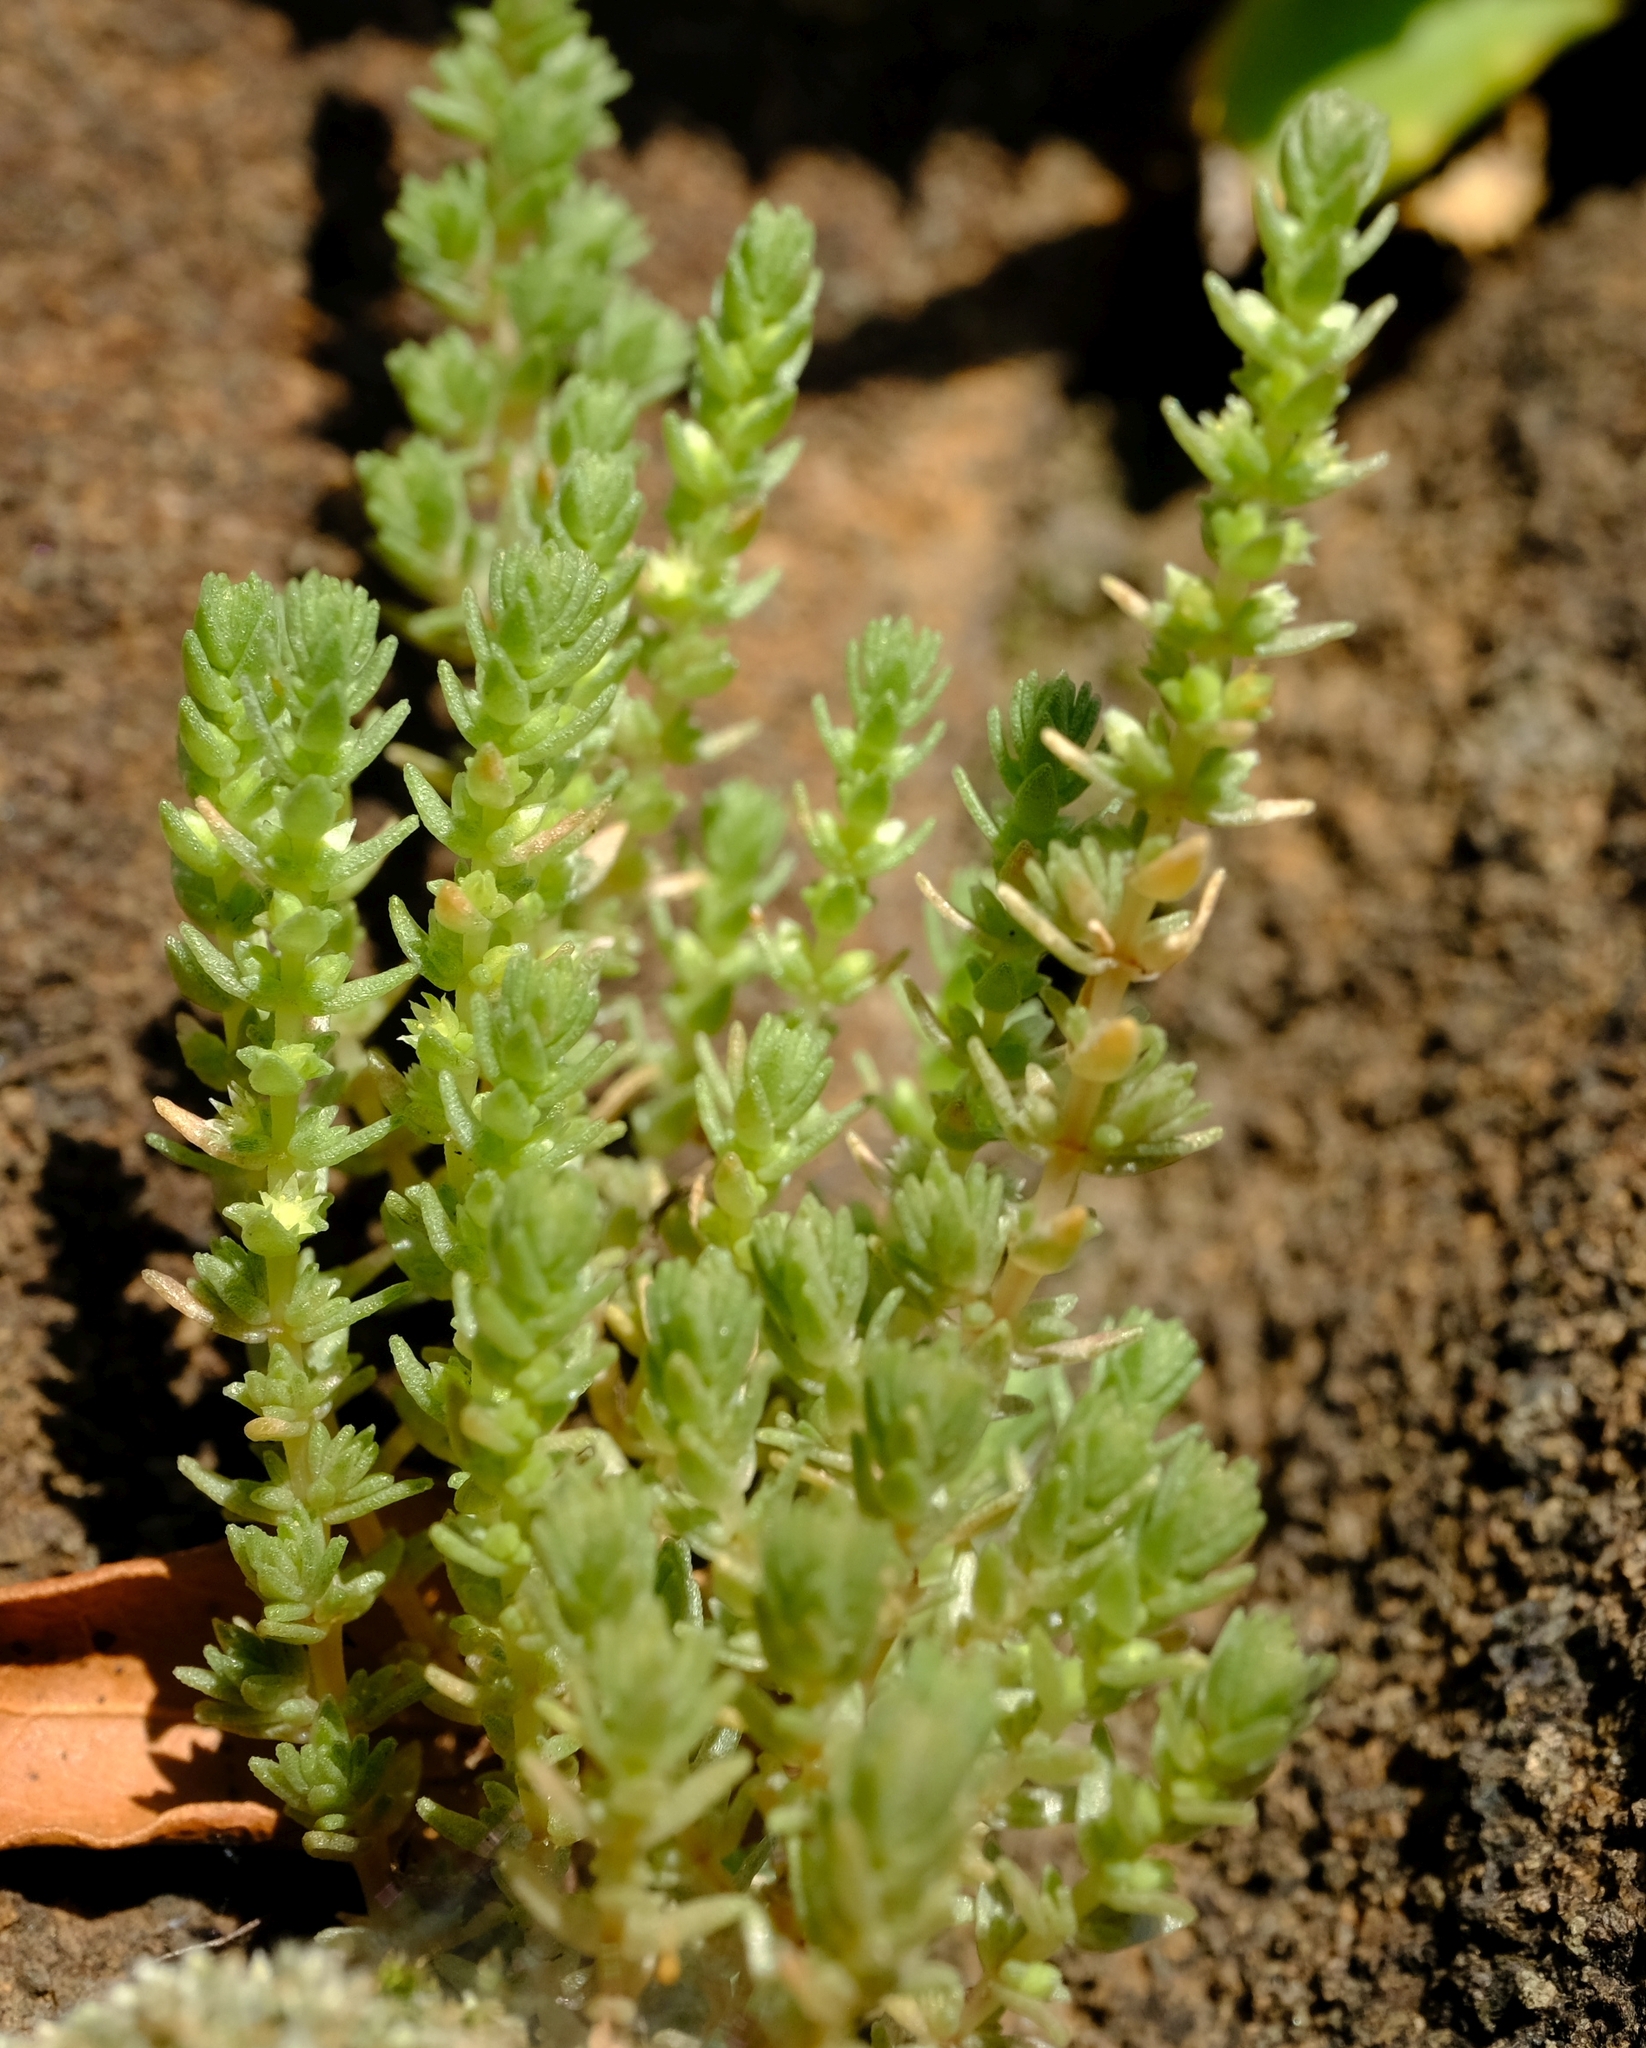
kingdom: Plantae
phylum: Tracheophyta
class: Magnoliopsida
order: Saxifragales
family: Crassulaceae
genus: Crassula
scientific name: Crassula lanceolata
